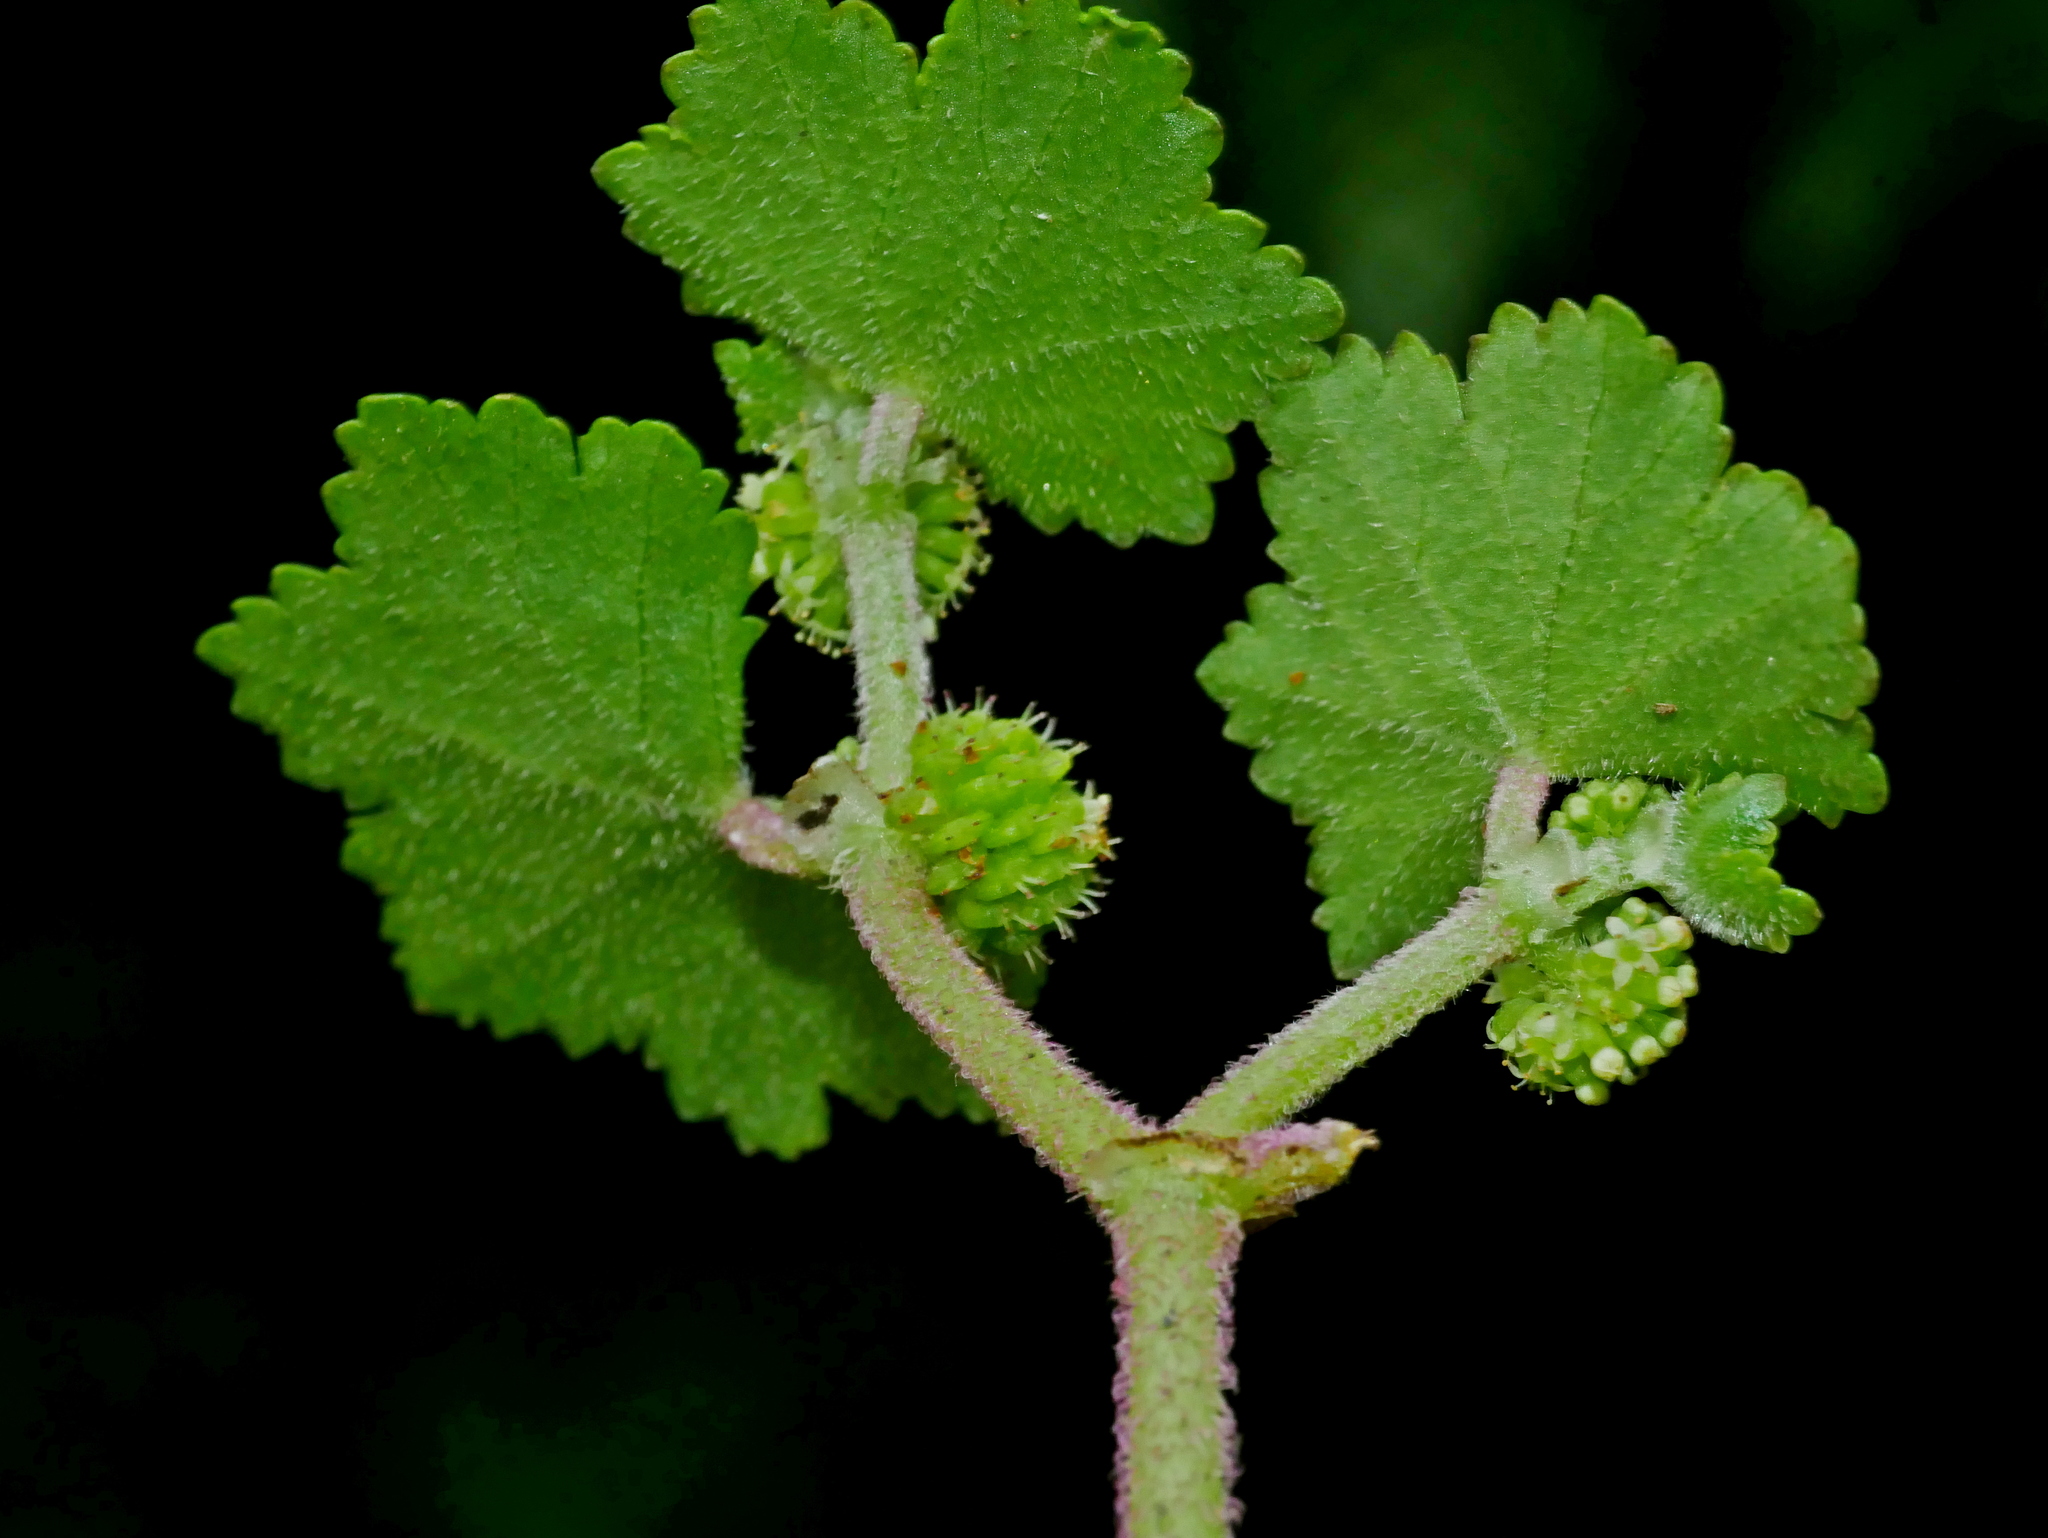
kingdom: Plantae
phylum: Tracheophyta
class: Magnoliopsida
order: Apiales
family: Araliaceae
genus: Hydrocotyle
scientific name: Hydrocotyle nepalensis
